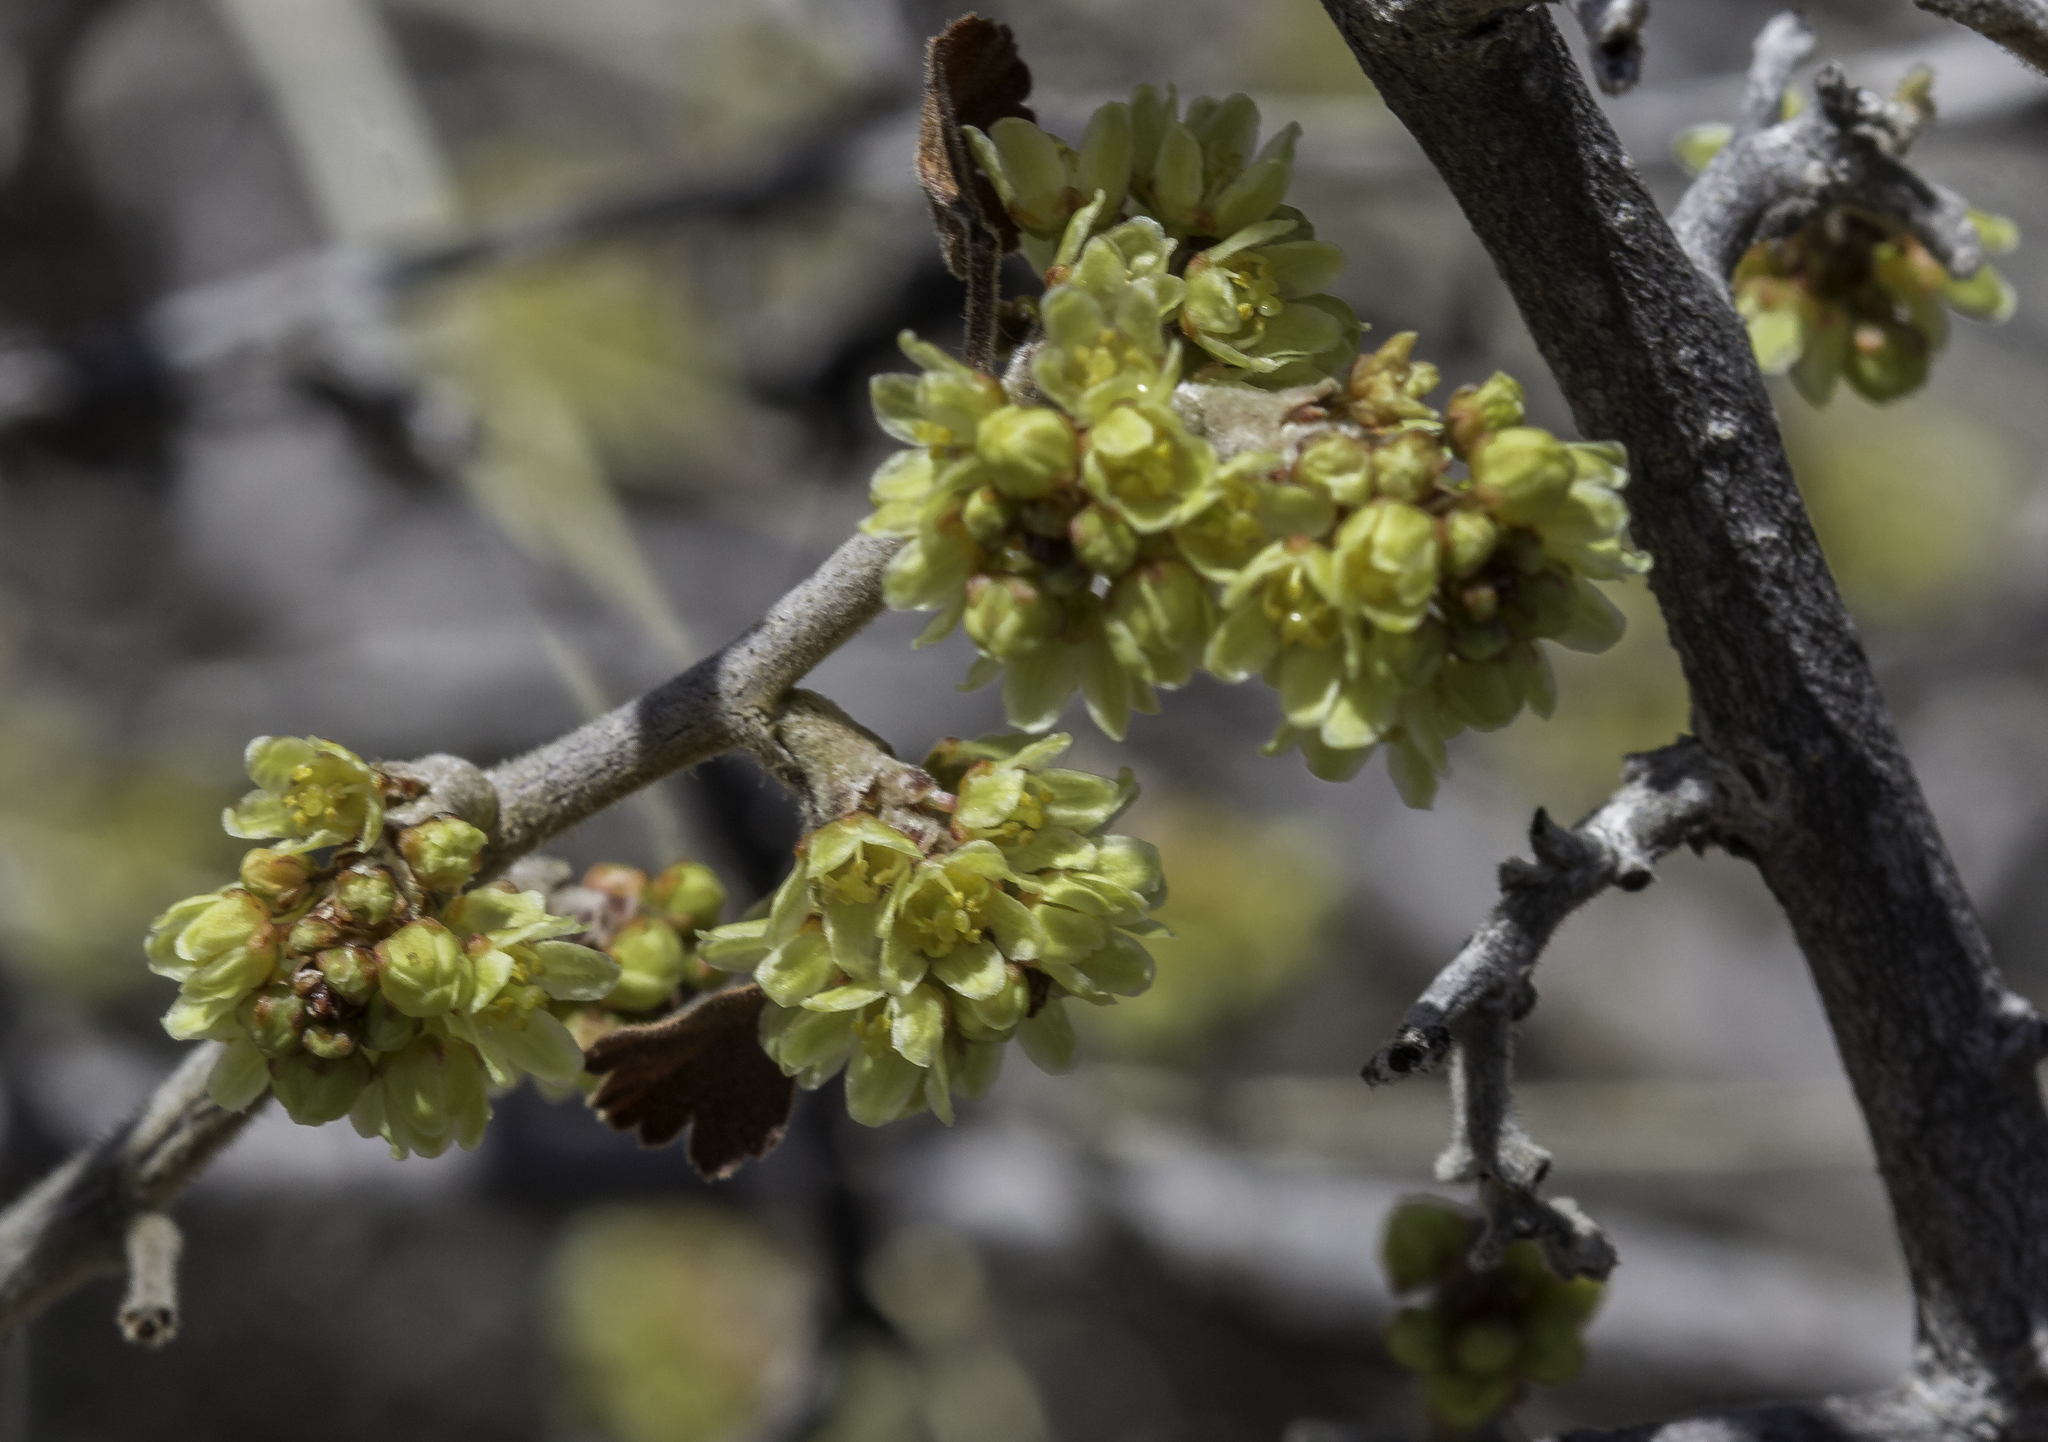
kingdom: Plantae
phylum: Tracheophyta
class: Magnoliopsida
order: Sapindales
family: Anacardiaceae
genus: Rhus
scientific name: Rhus aromatica
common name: Aromatic sumac
